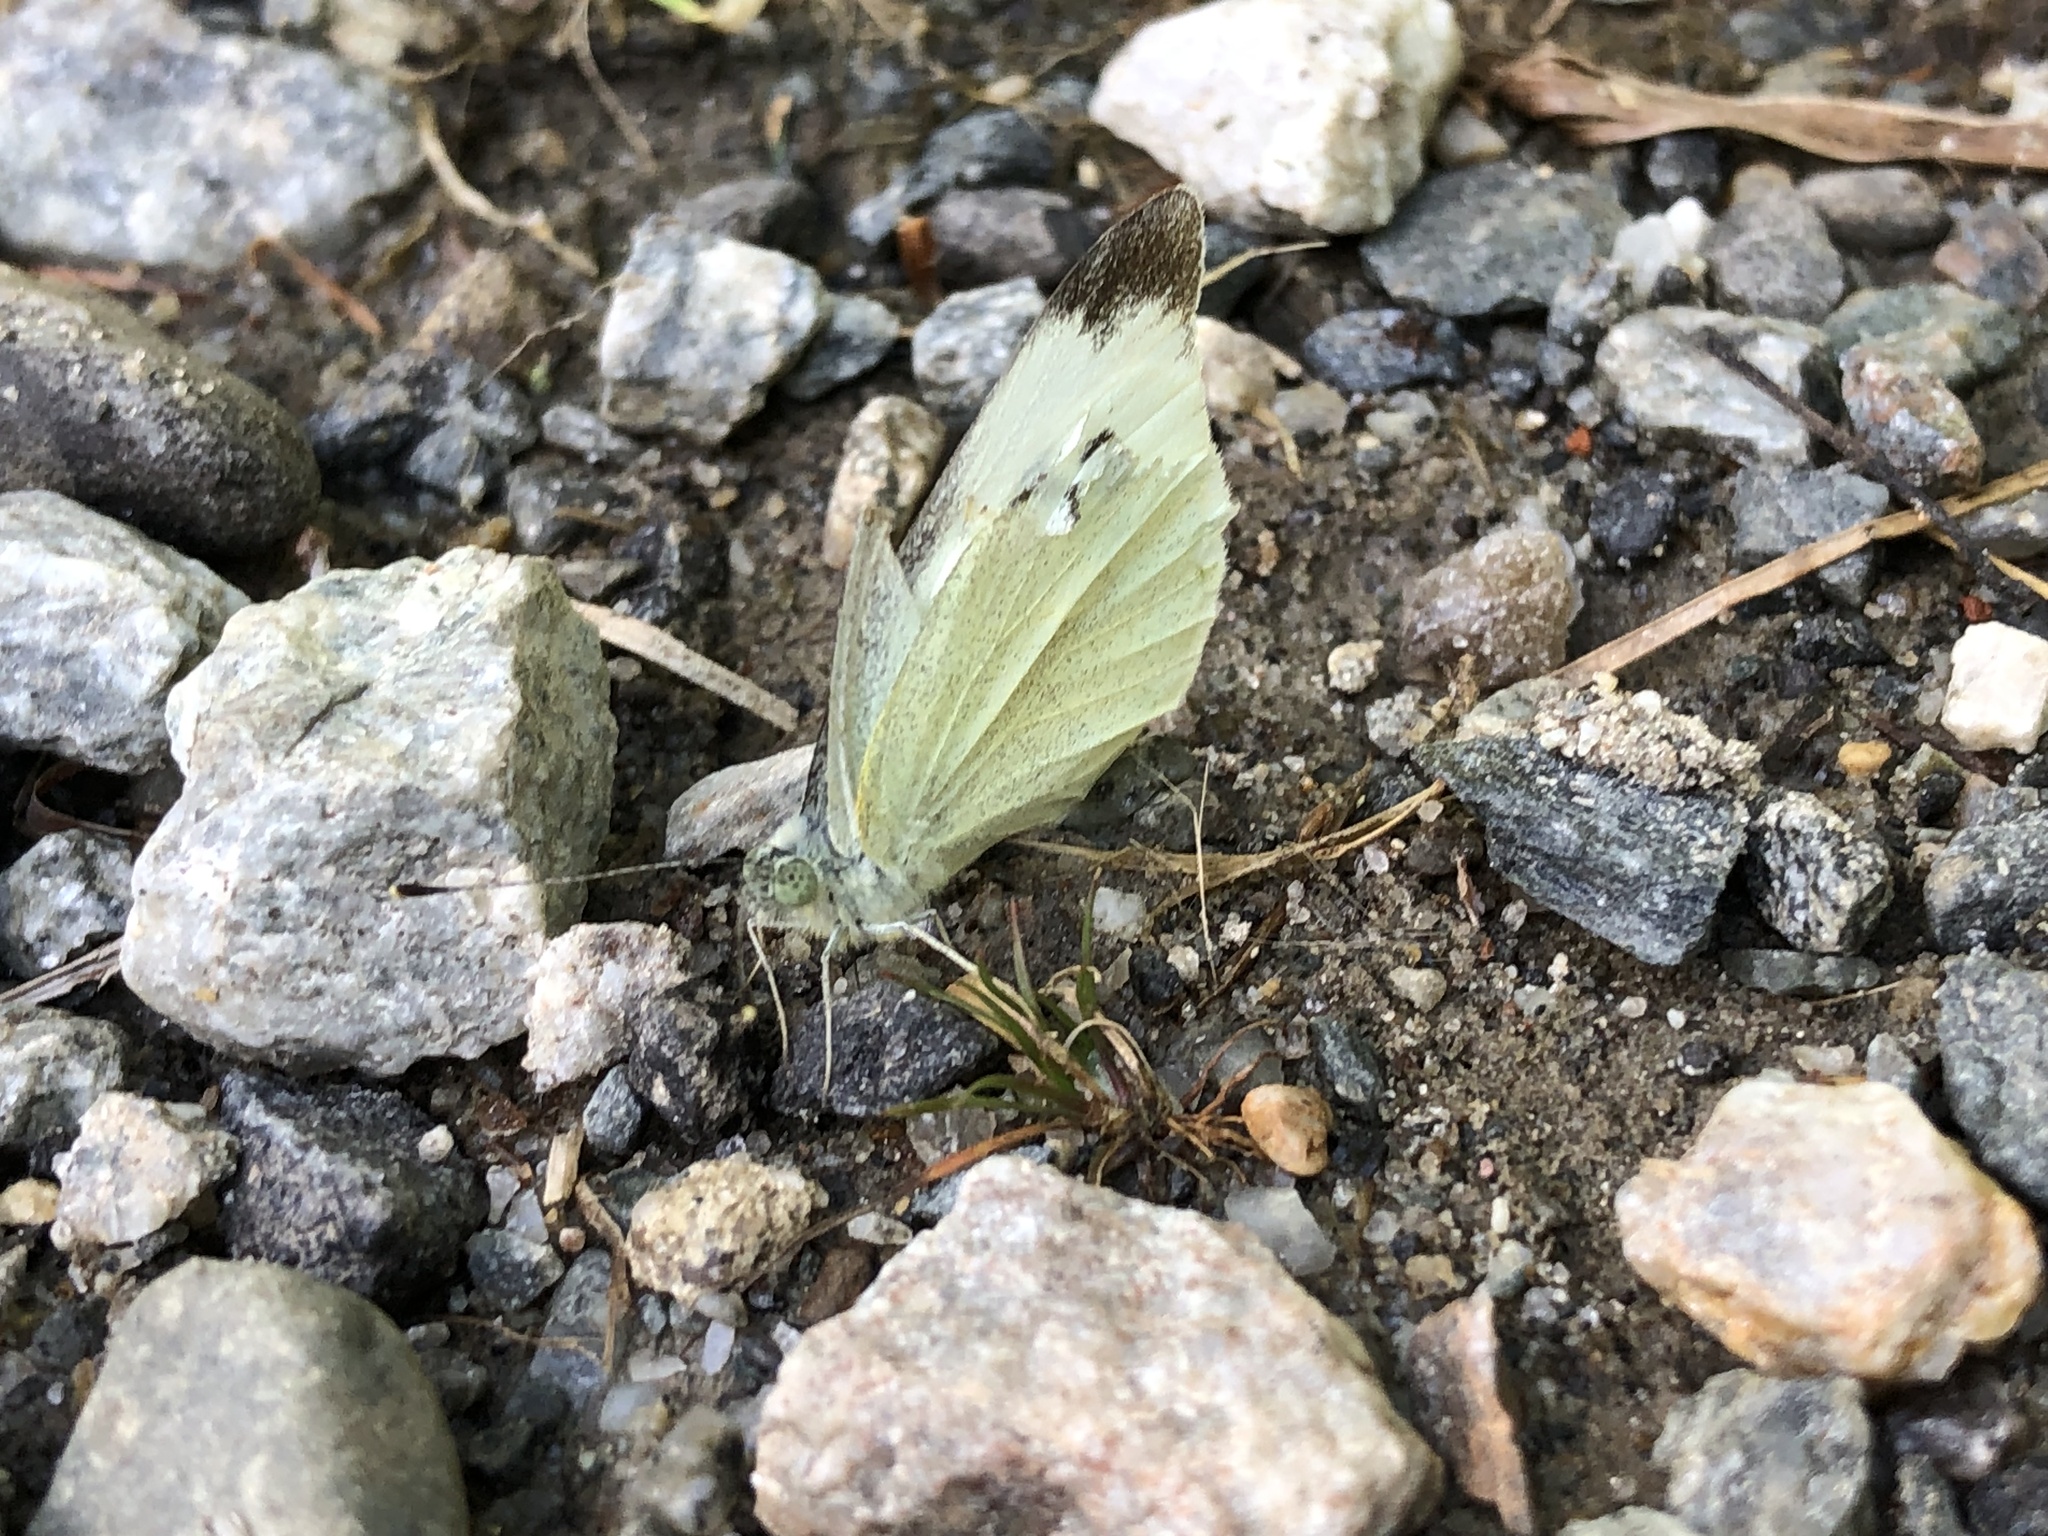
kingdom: Animalia
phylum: Arthropoda
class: Insecta
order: Lepidoptera
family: Pieridae
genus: Pieris
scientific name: Pieris rapae
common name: Small white
